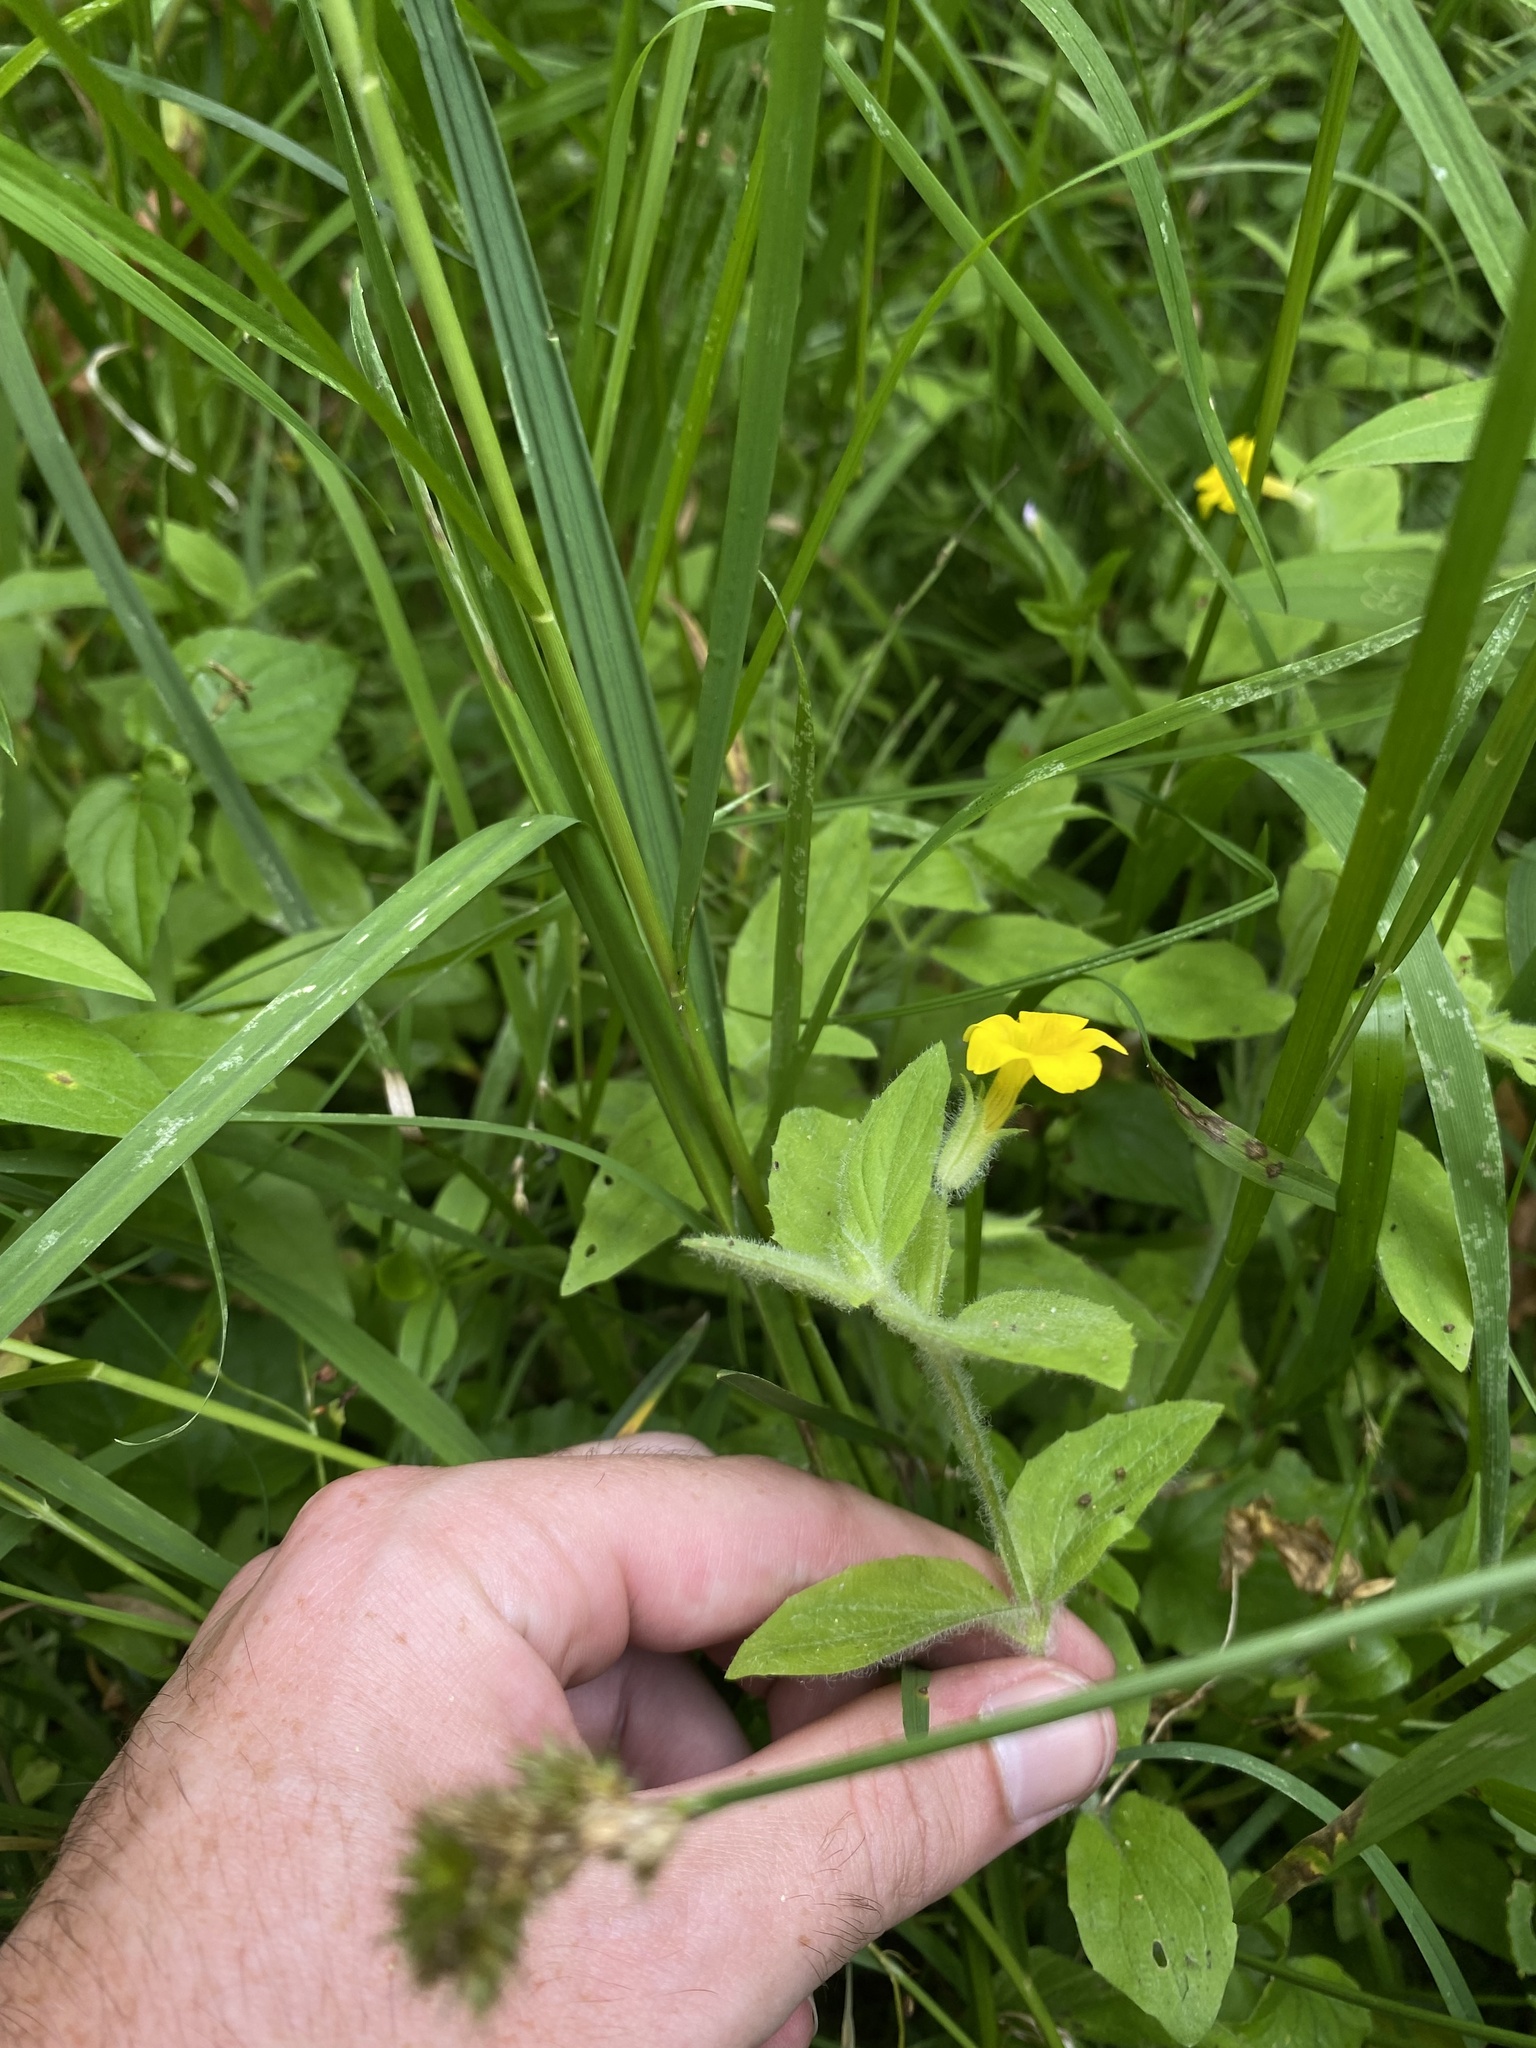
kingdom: Plantae
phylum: Tracheophyta
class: Magnoliopsida
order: Lamiales
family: Phrymaceae
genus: Erythranthe
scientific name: Erythranthe moschata
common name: Muskflower
